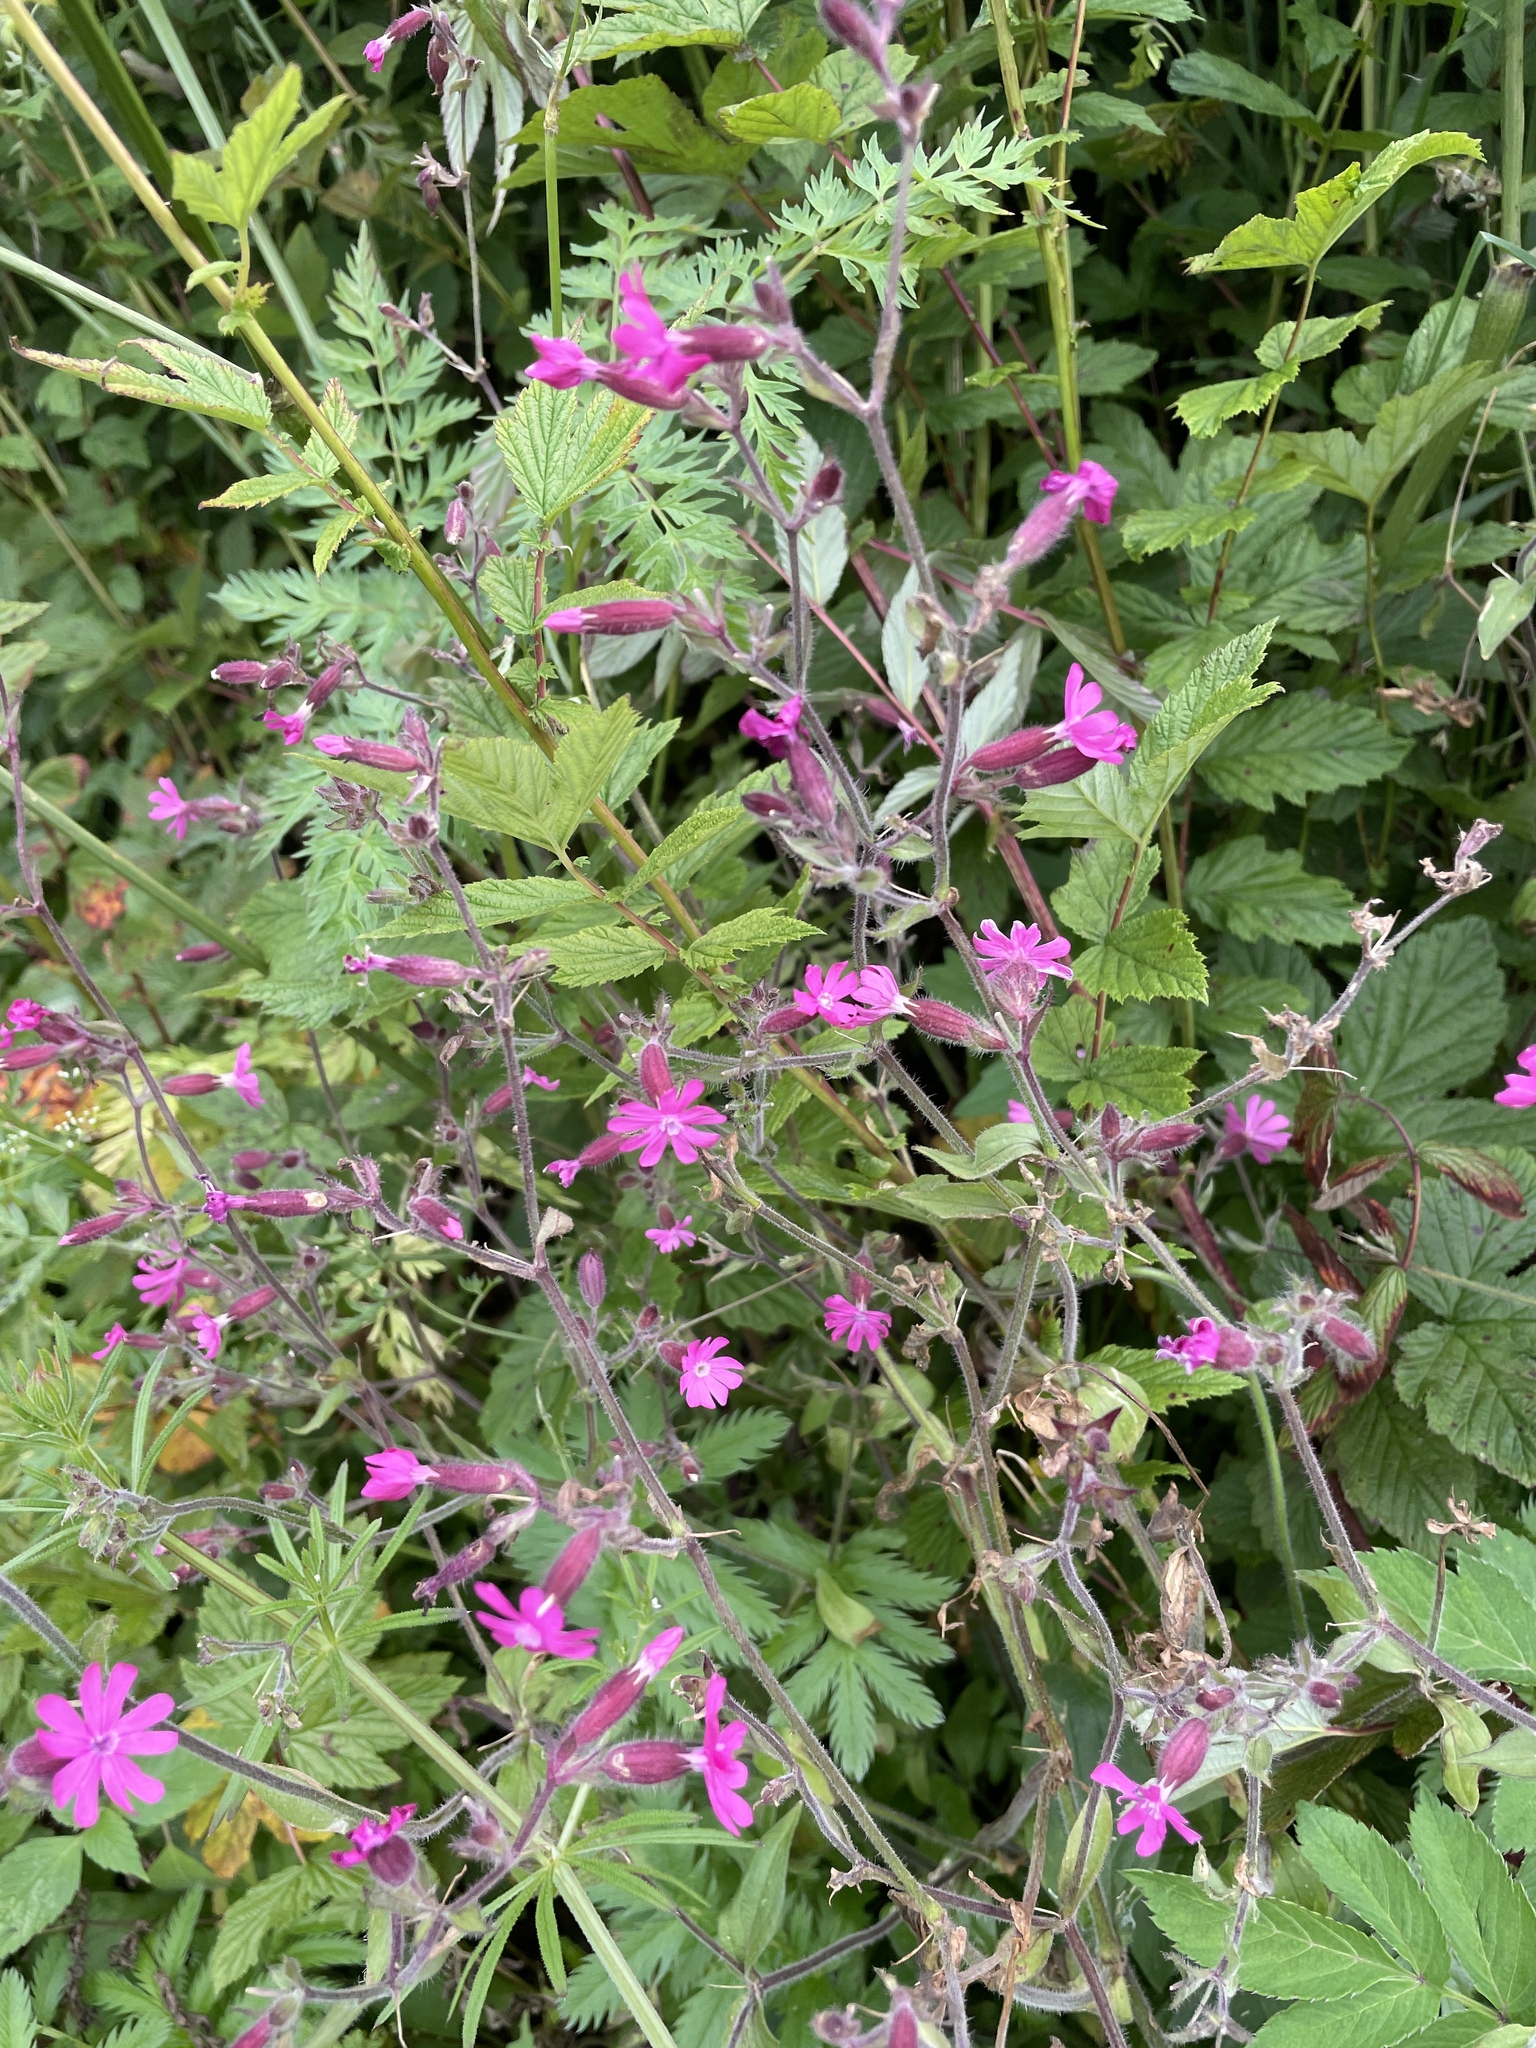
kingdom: Plantae
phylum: Tracheophyta
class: Magnoliopsida
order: Caryophyllales
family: Caryophyllaceae
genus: Silene
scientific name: Silene dioica
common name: Red campion
